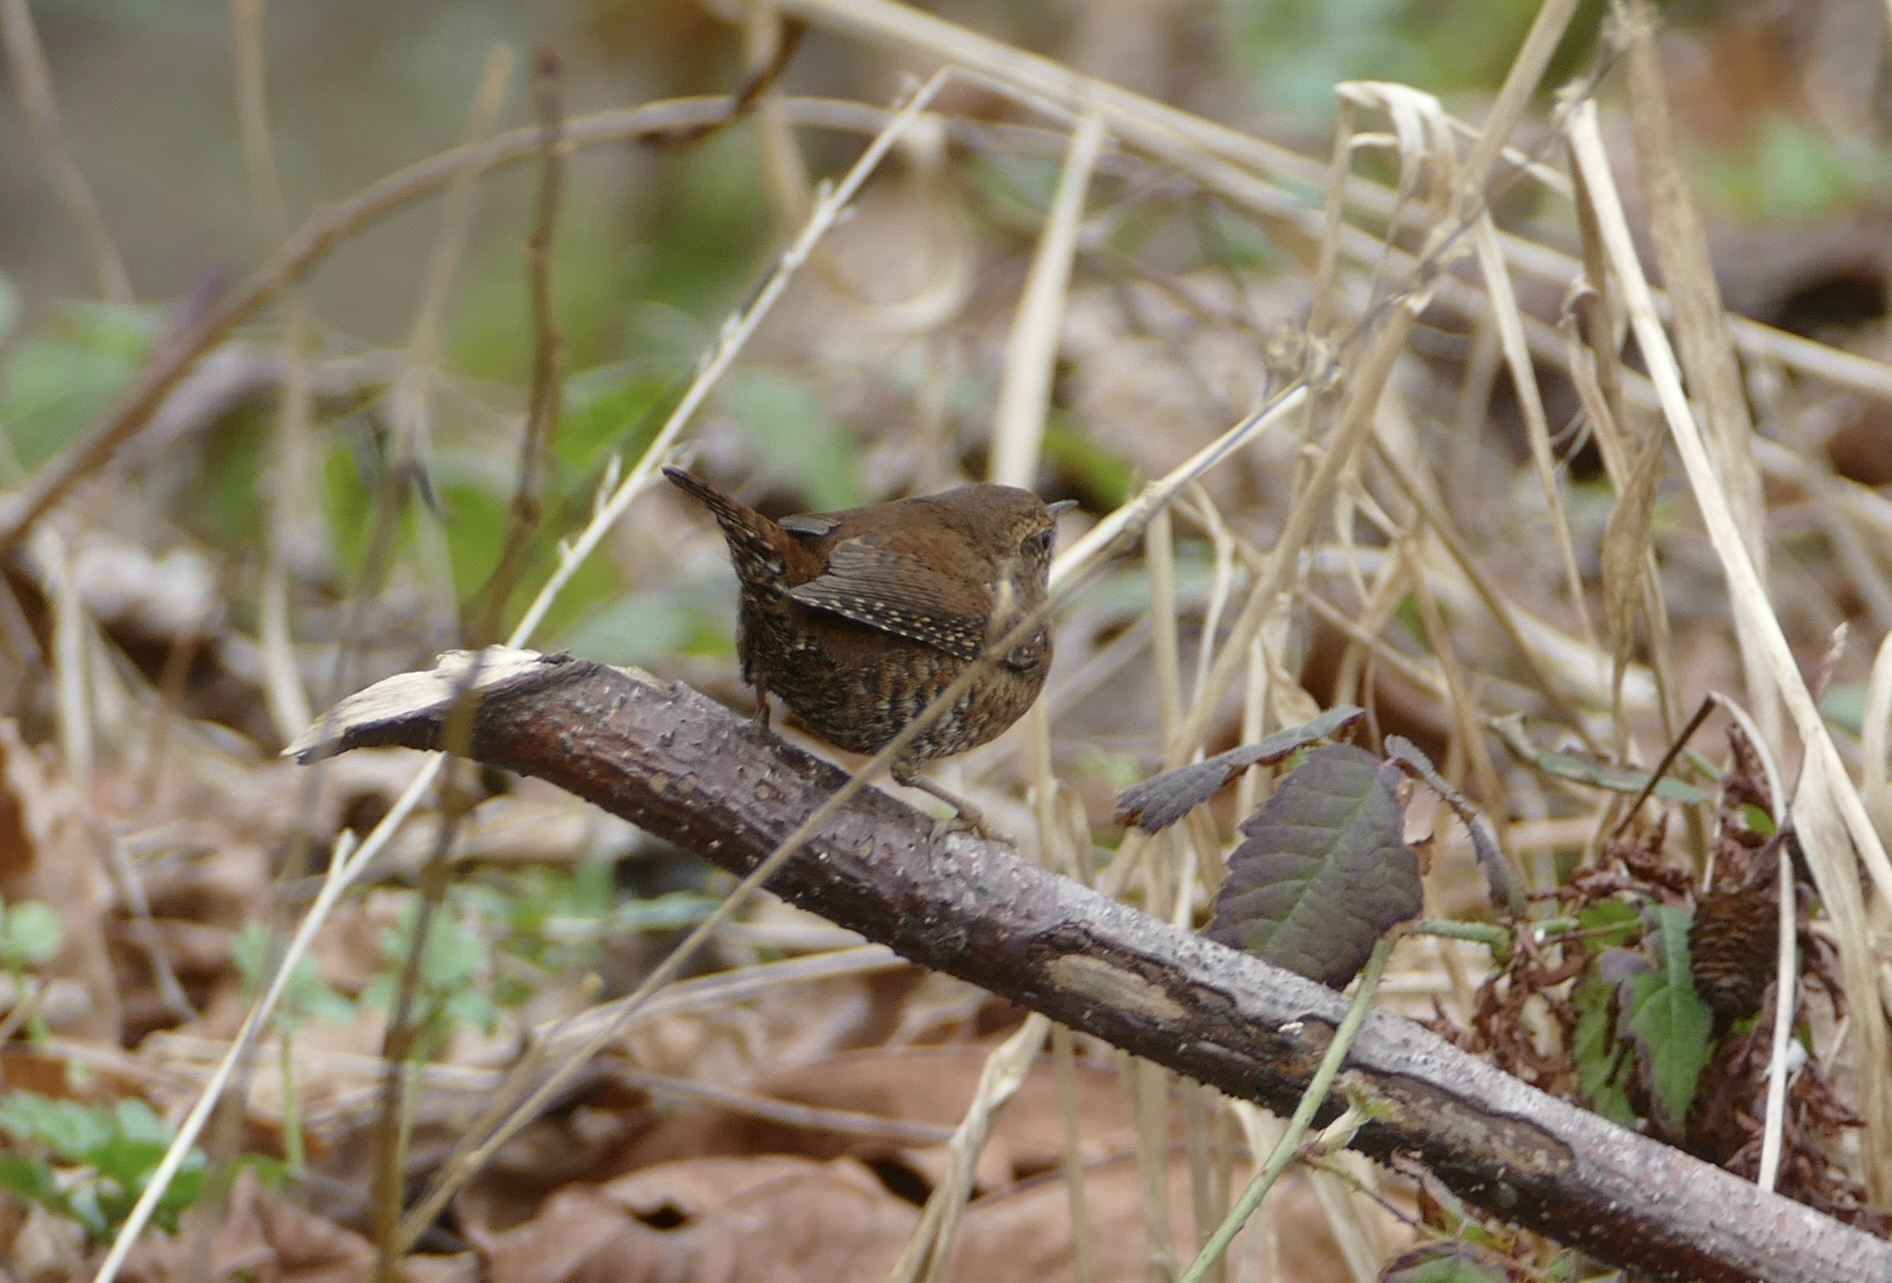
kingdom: Animalia
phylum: Chordata
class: Aves
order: Passeriformes
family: Troglodytidae
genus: Troglodytes
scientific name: Troglodytes pacificus
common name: Pacific wren
